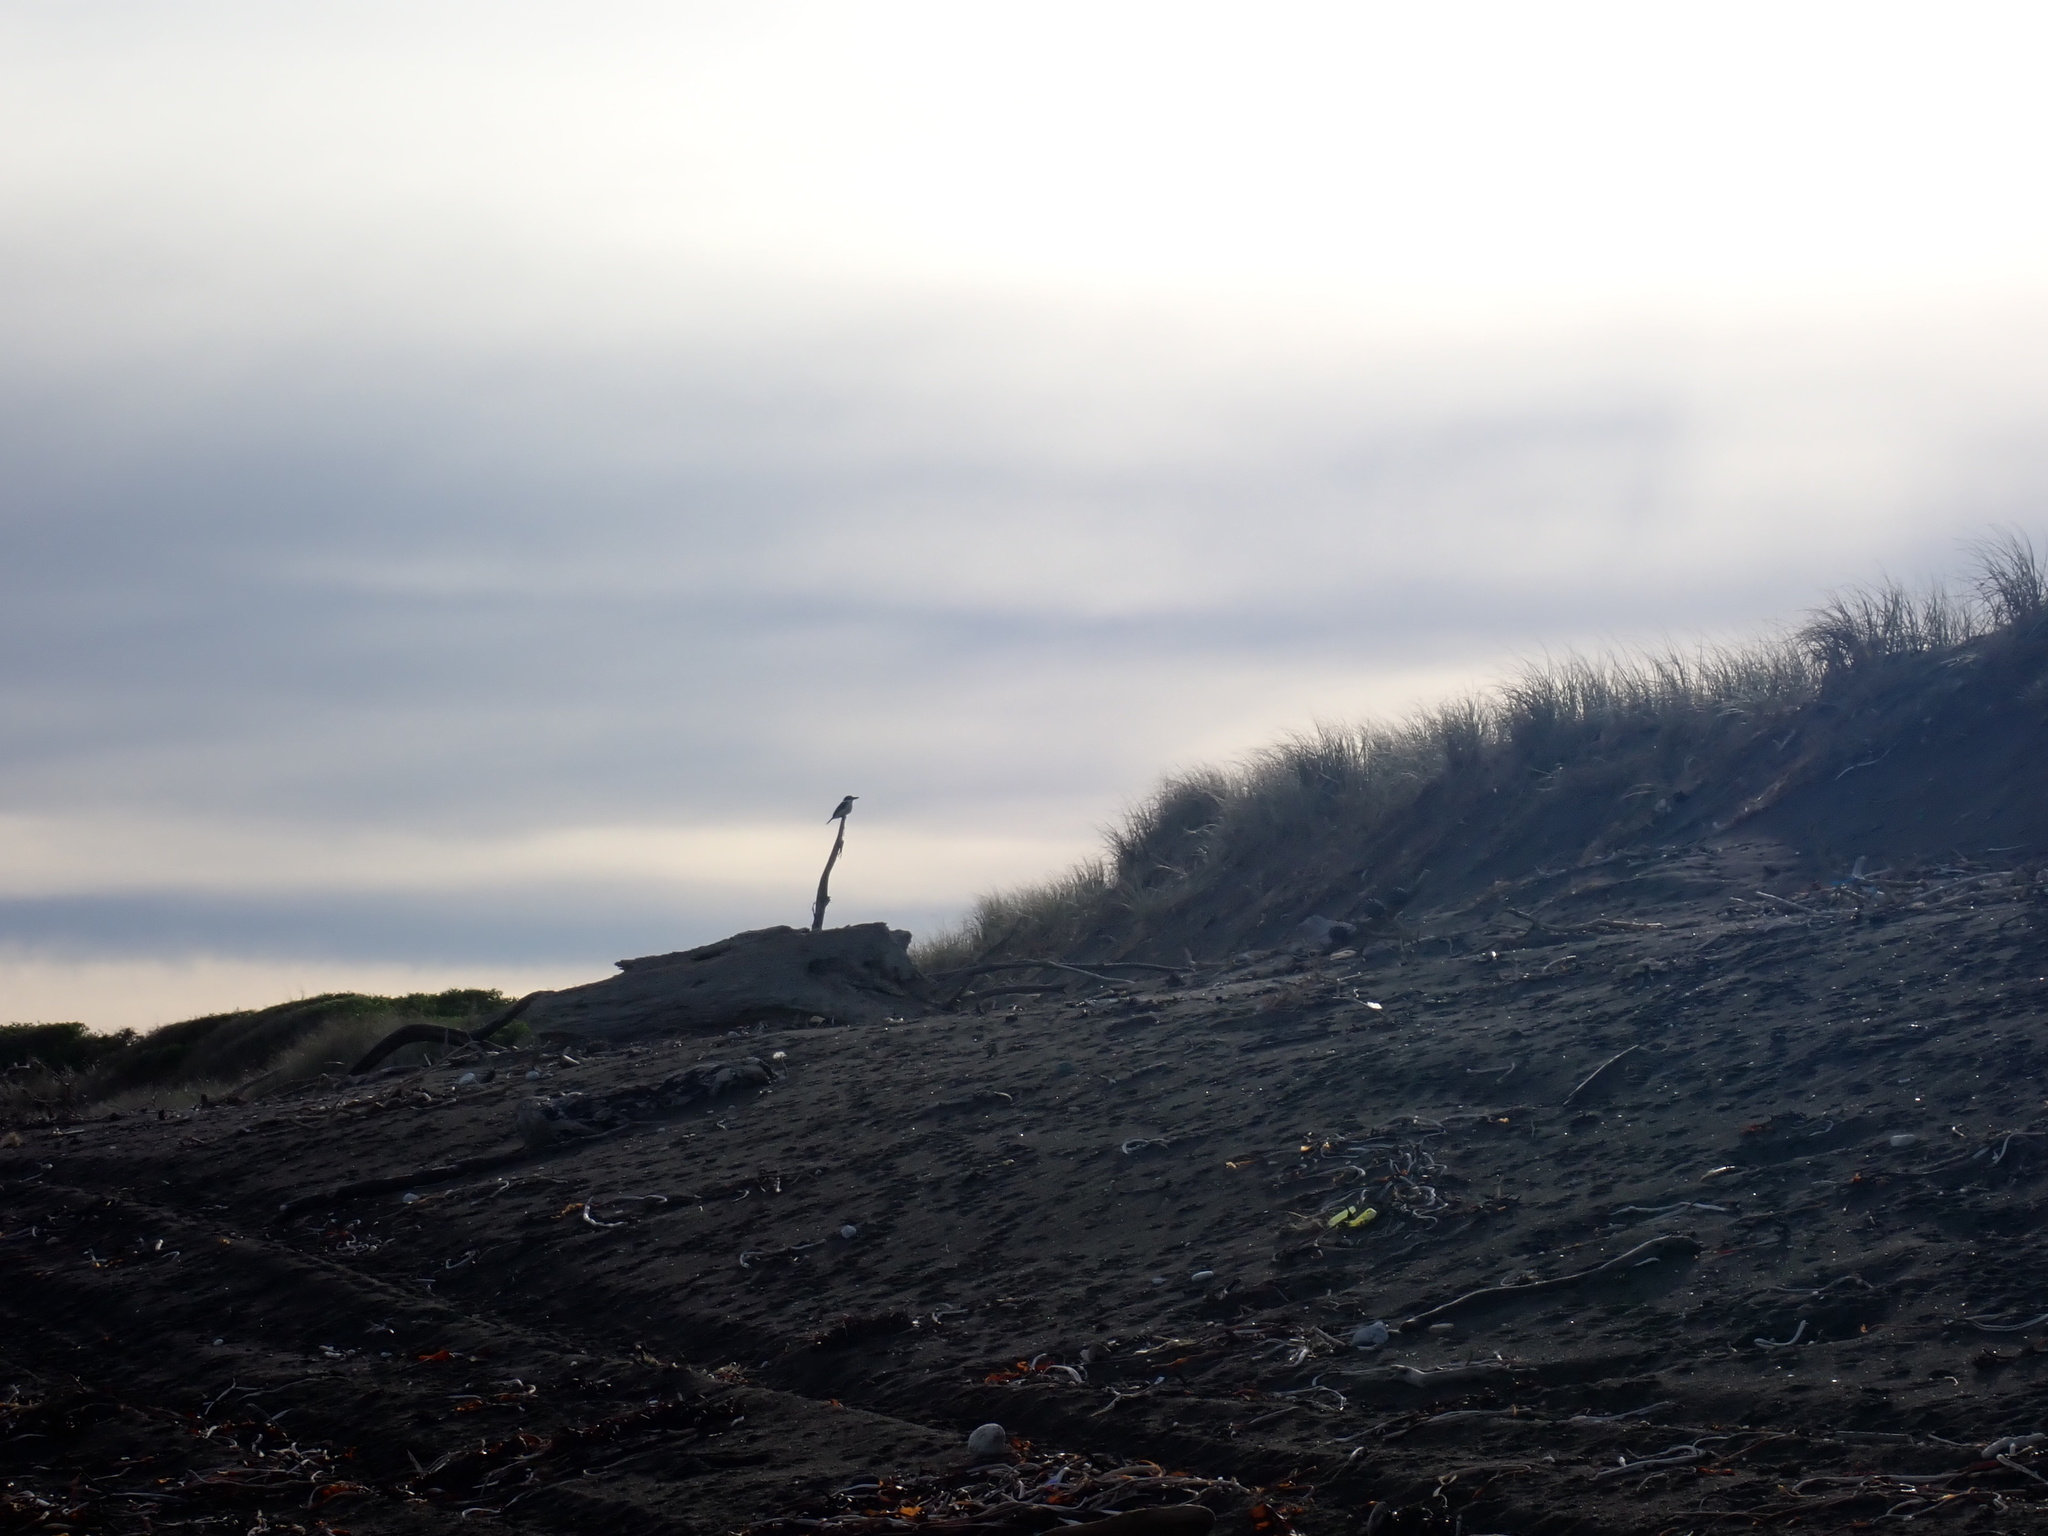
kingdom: Animalia
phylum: Chordata
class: Aves
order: Coraciiformes
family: Alcedinidae
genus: Todiramphus
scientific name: Todiramphus sanctus
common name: Sacred kingfisher
